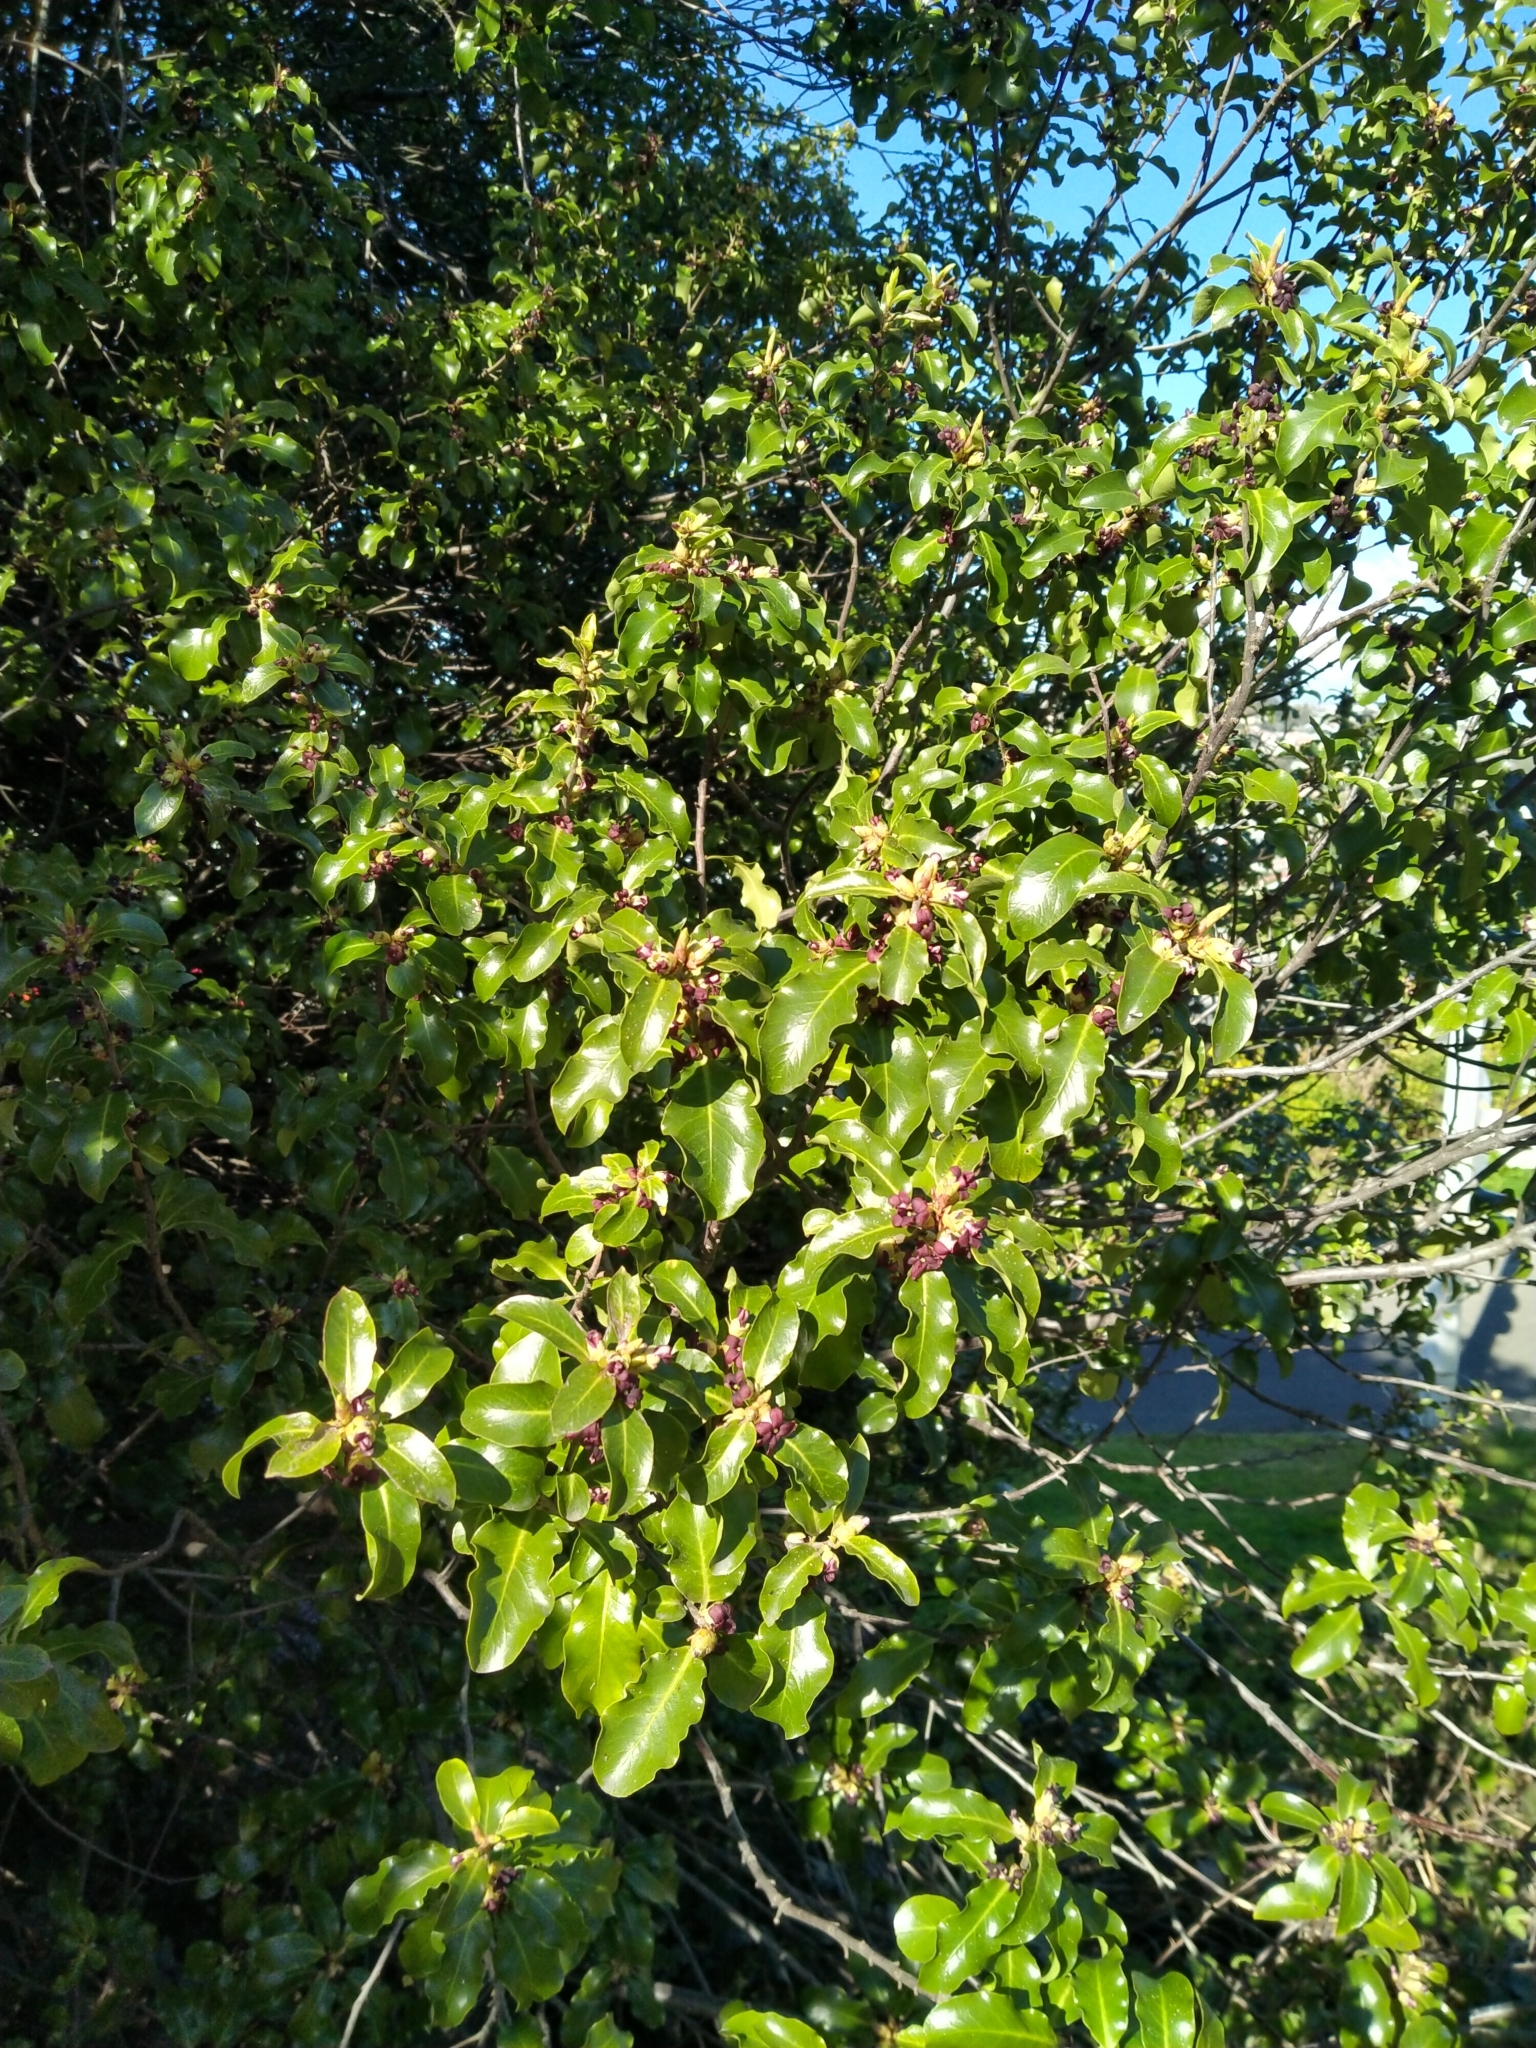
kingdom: Plantae
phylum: Tracheophyta
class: Magnoliopsida
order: Apiales
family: Pittosporaceae
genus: Pittosporum
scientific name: Pittosporum tenuifolium
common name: Kohuhu
